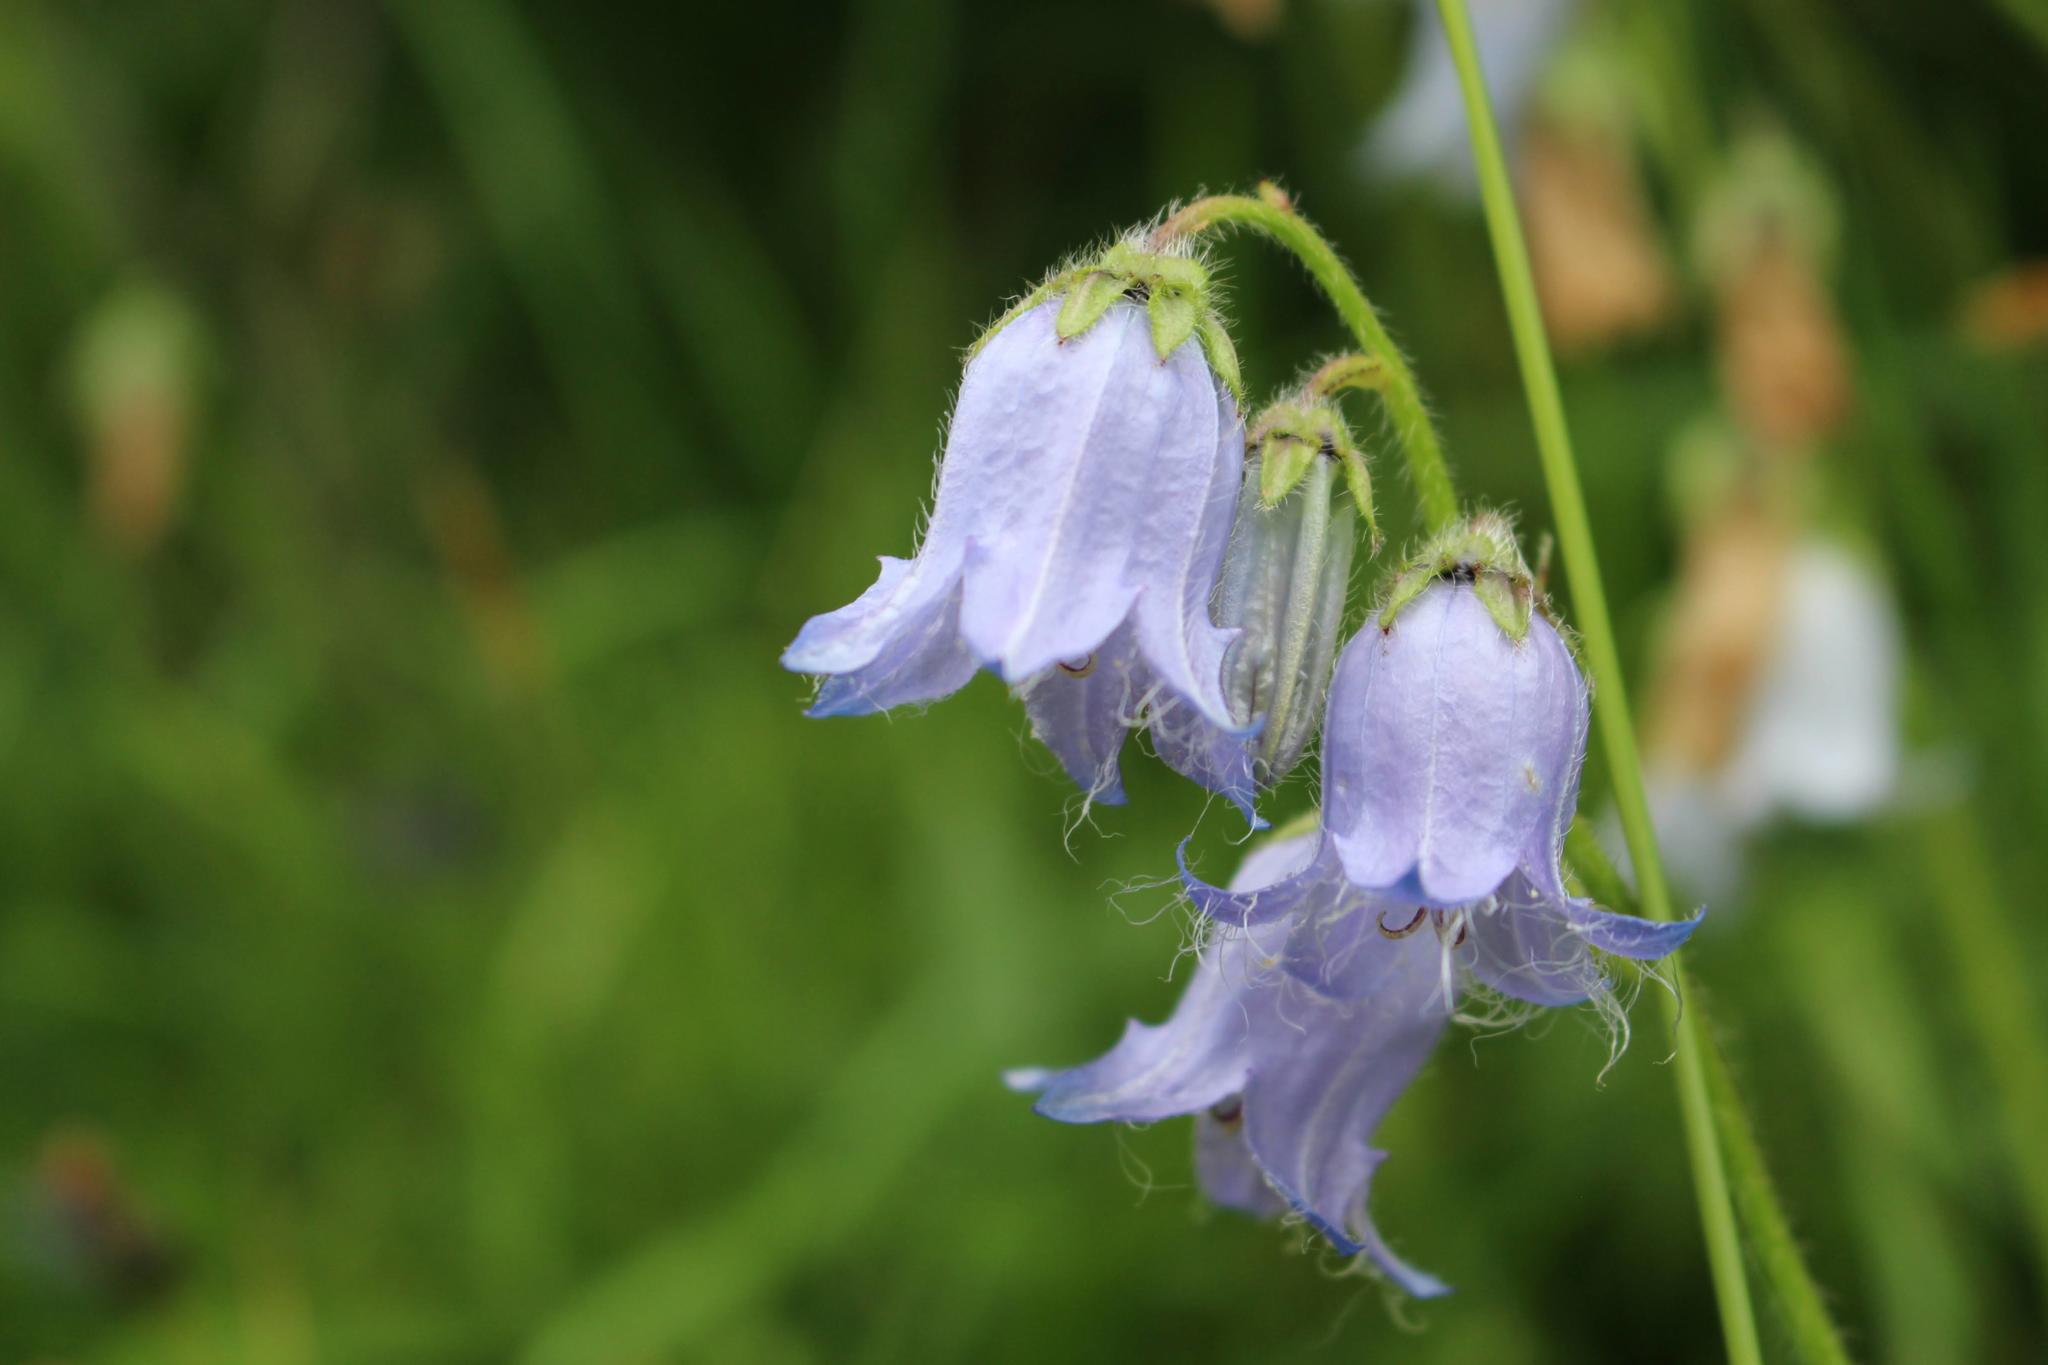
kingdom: Plantae
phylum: Tracheophyta
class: Magnoliopsida
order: Asterales
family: Campanulaceae
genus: Campanula
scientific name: Campanula barbata
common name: Bearded bellflower
